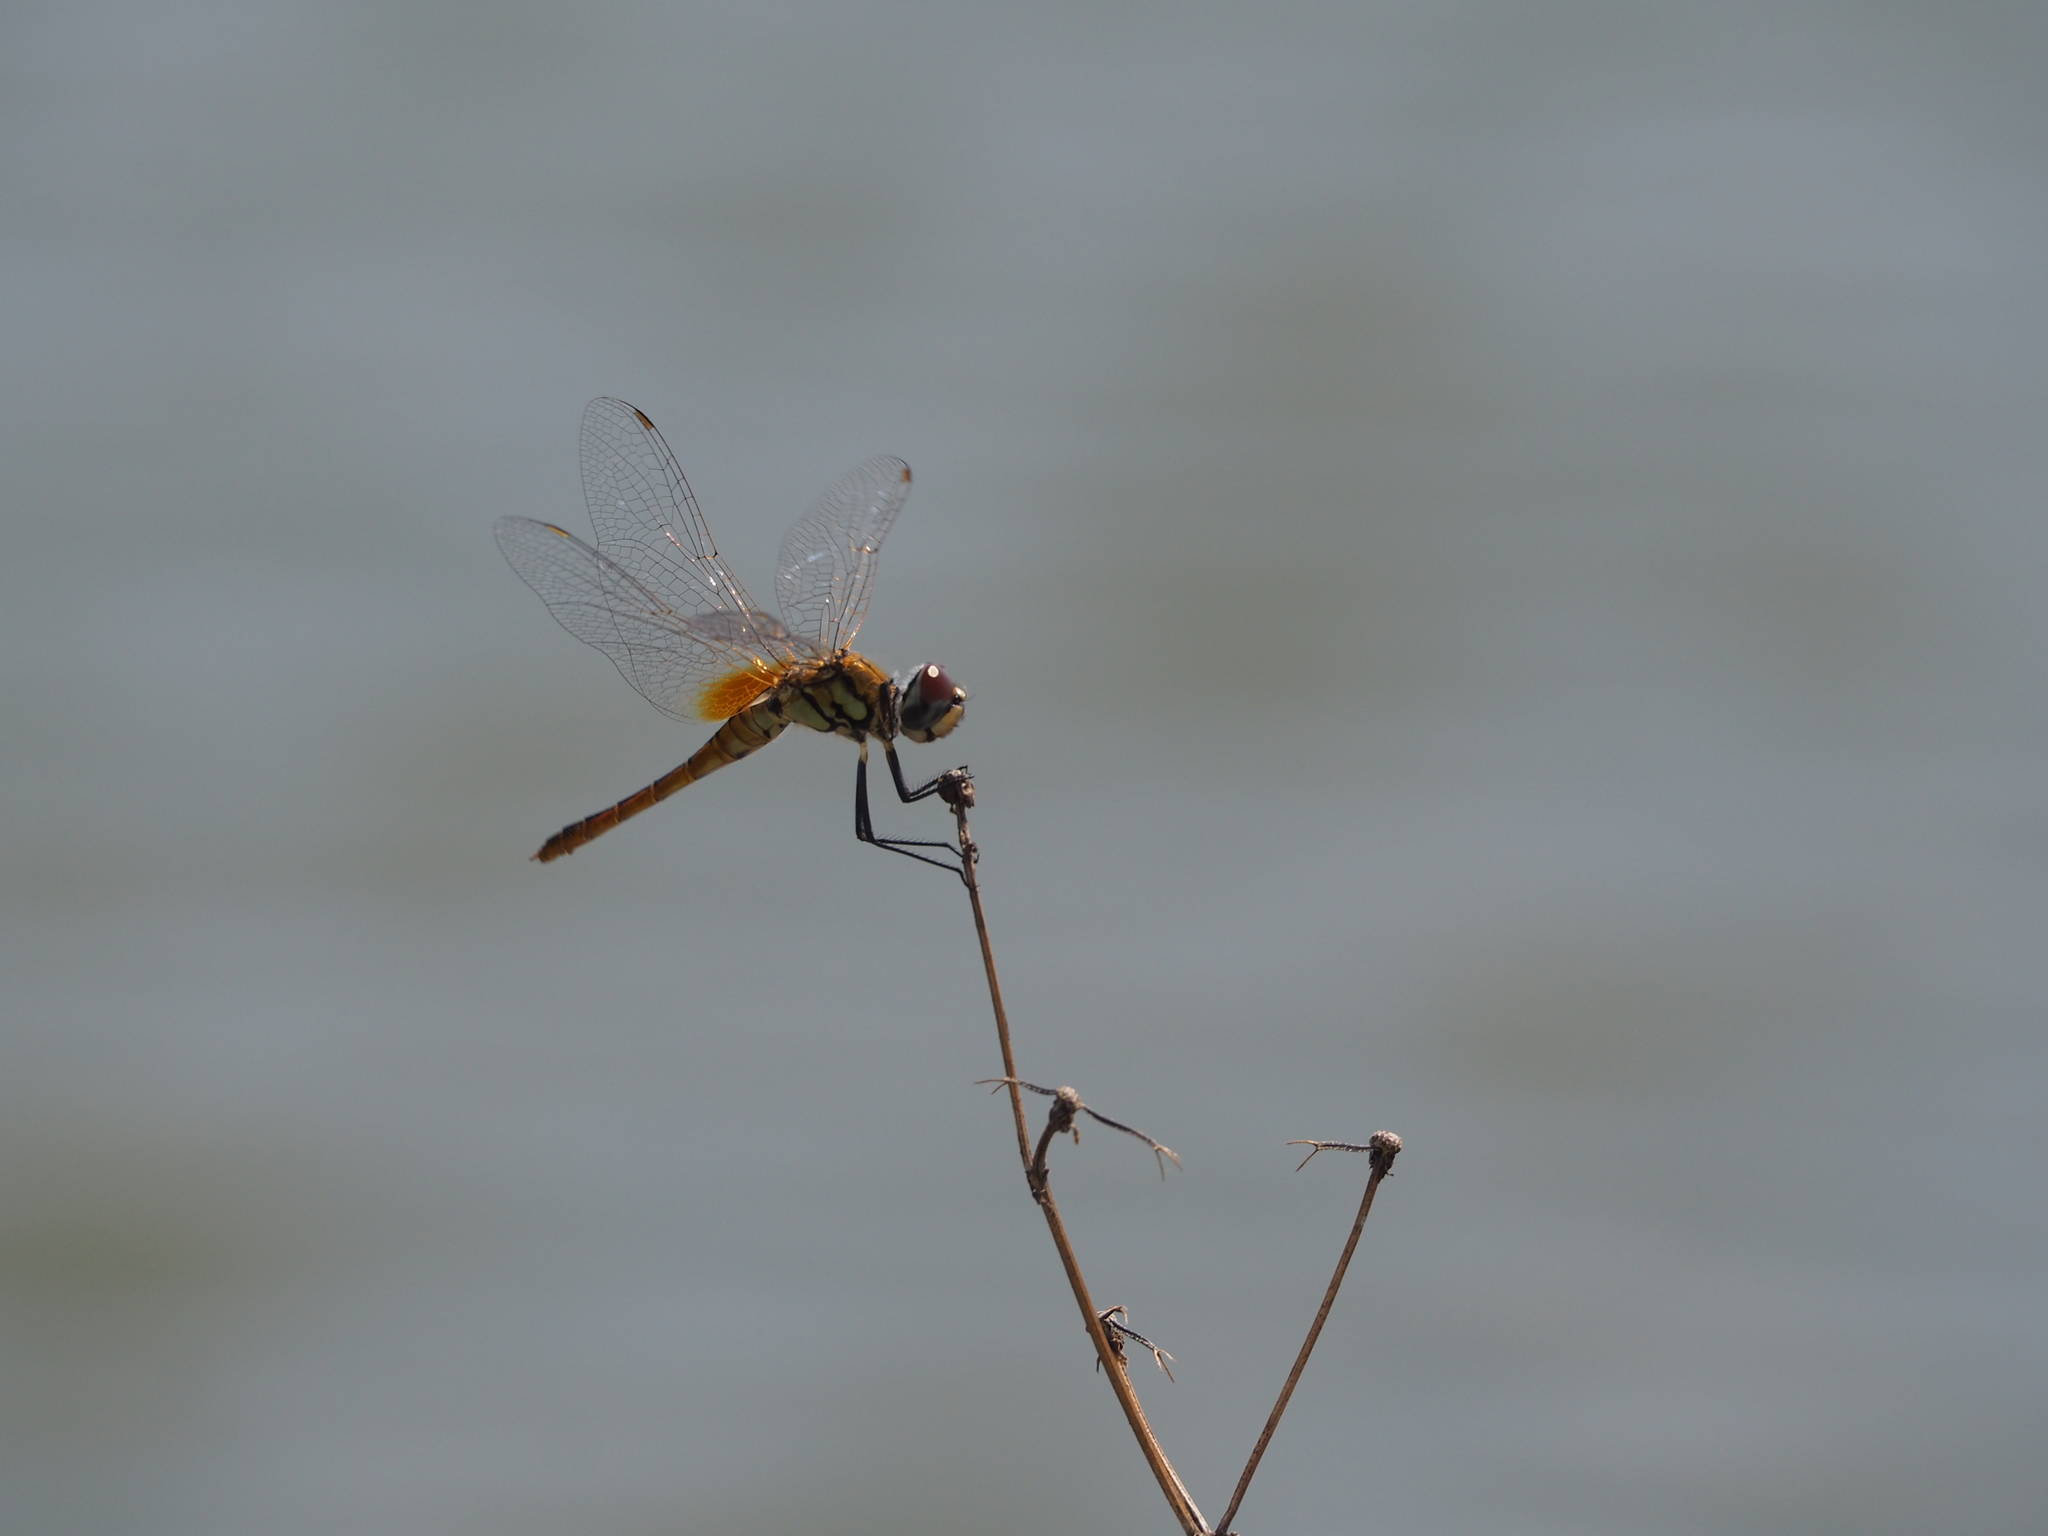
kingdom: Animalia
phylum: Arthropoda
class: Insecta
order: Odonata
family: Libellulidae
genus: Macrodiplax
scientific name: Macrodiplax cora
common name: Coastal glider
